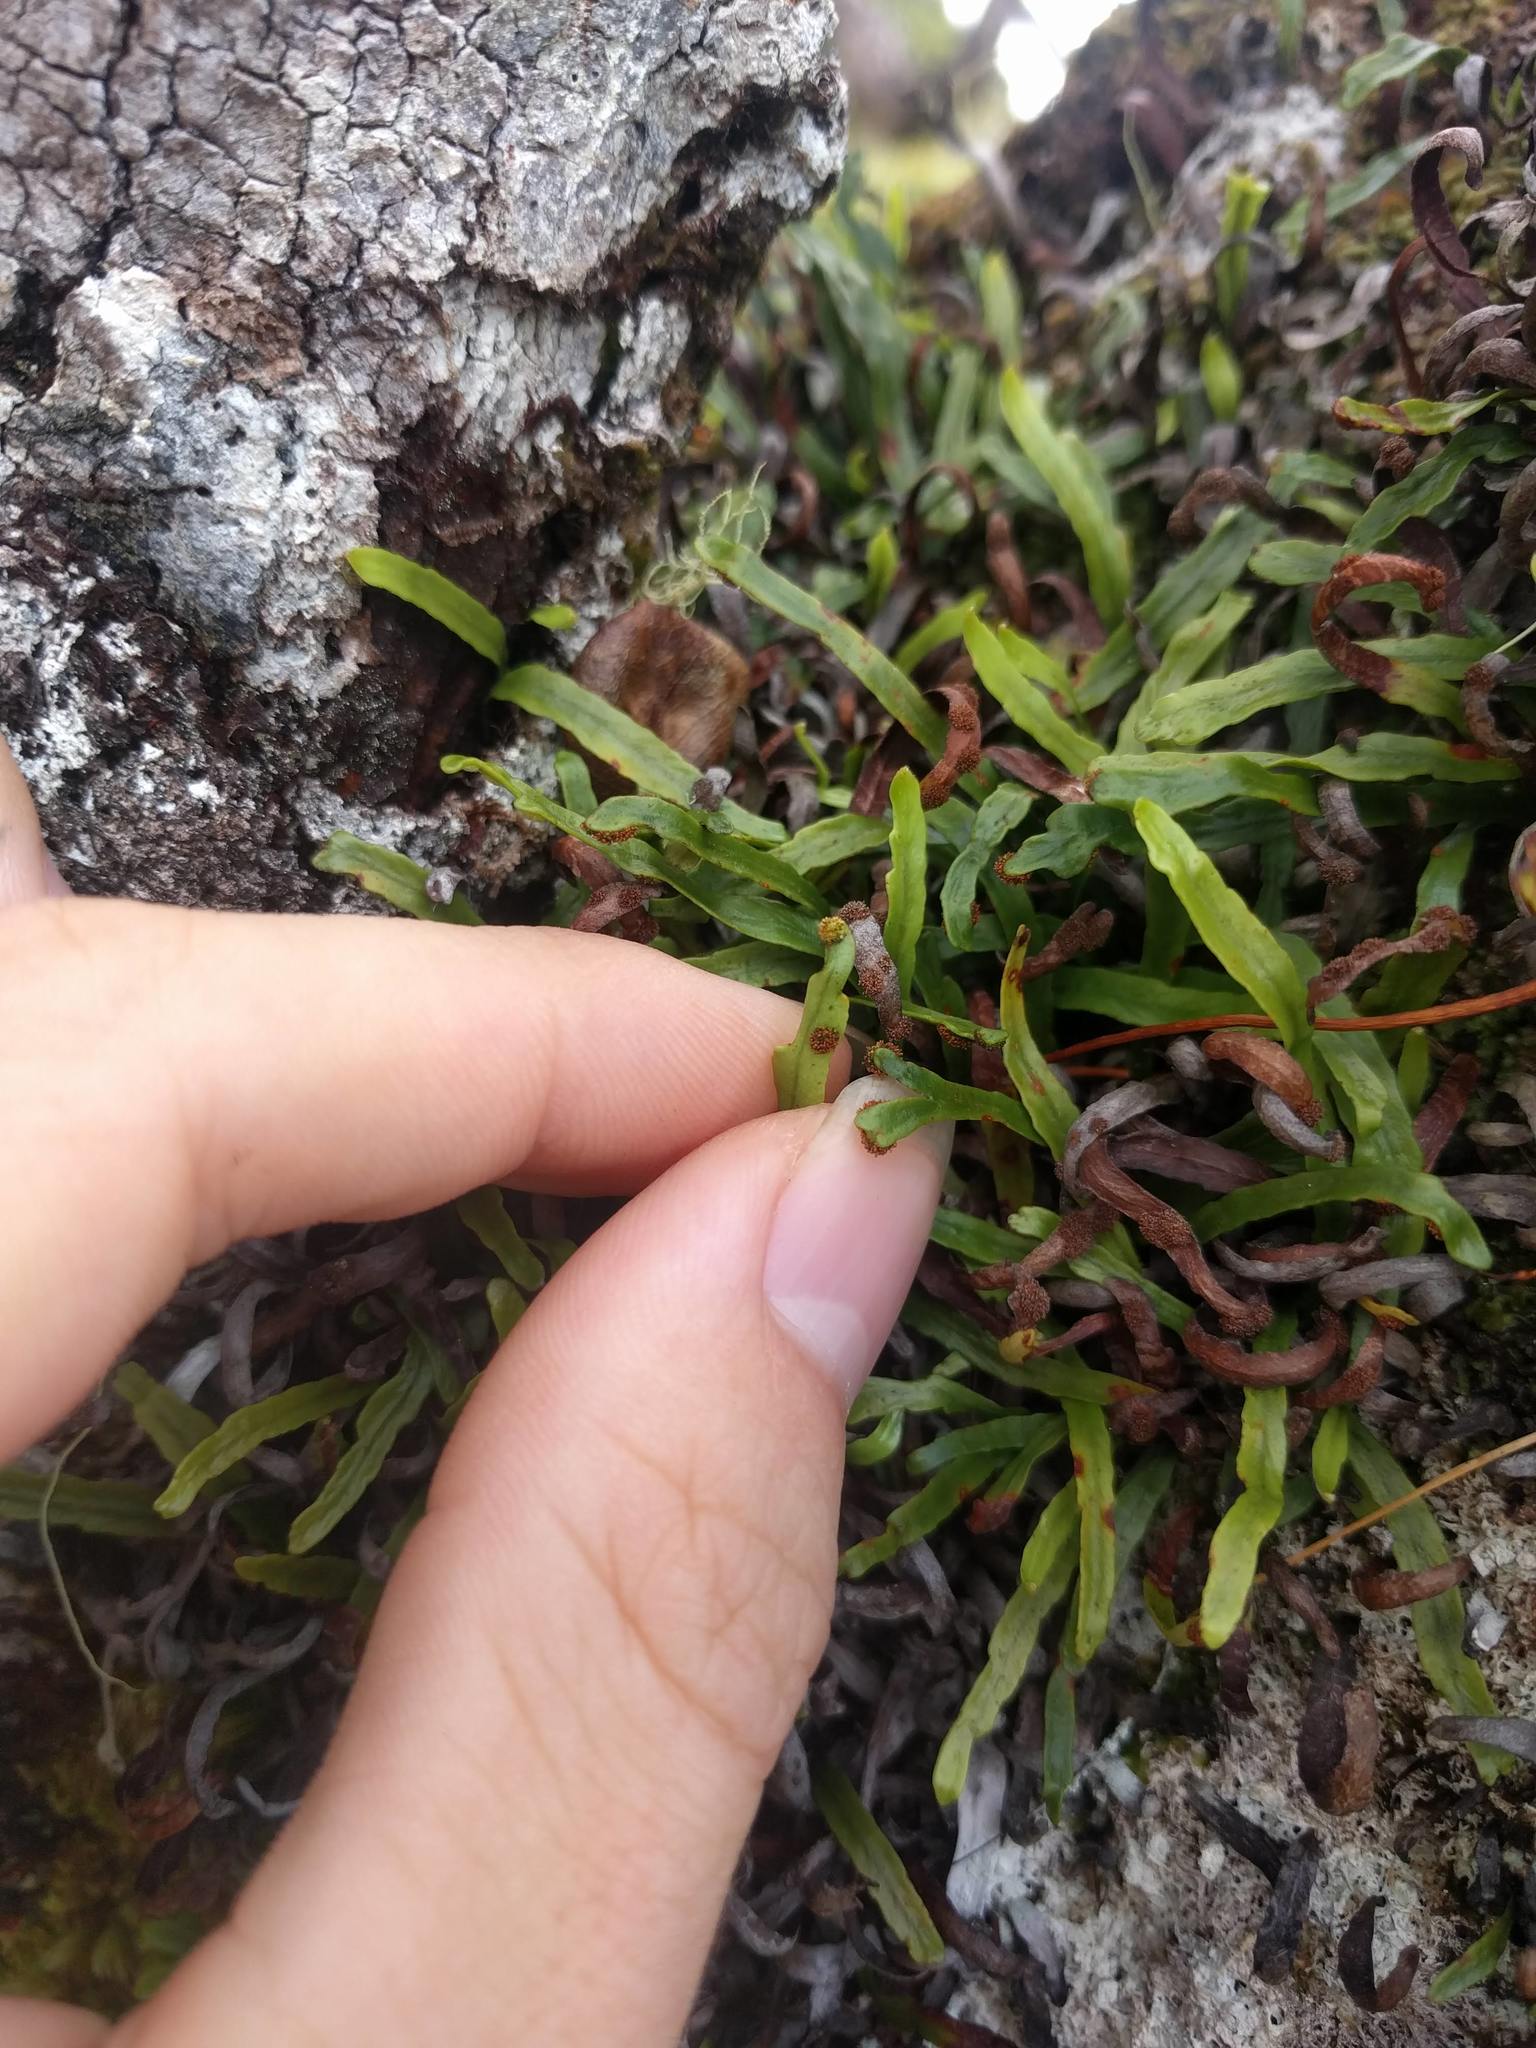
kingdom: Plantae
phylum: Tracheophyta
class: Polypodiopsida
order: Polypodiales
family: Polypodiaceae
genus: Adenophorus
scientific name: Adenophorus tenellus
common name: Kolokolo
